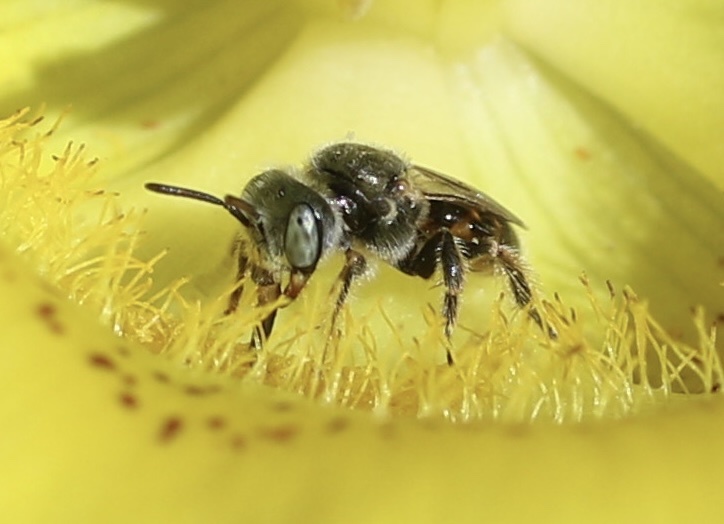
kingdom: Animalia
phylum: Arthropoda
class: Insecta
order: Hymenoptera
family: Andrenidae
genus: Perdita
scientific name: Perdita californica
